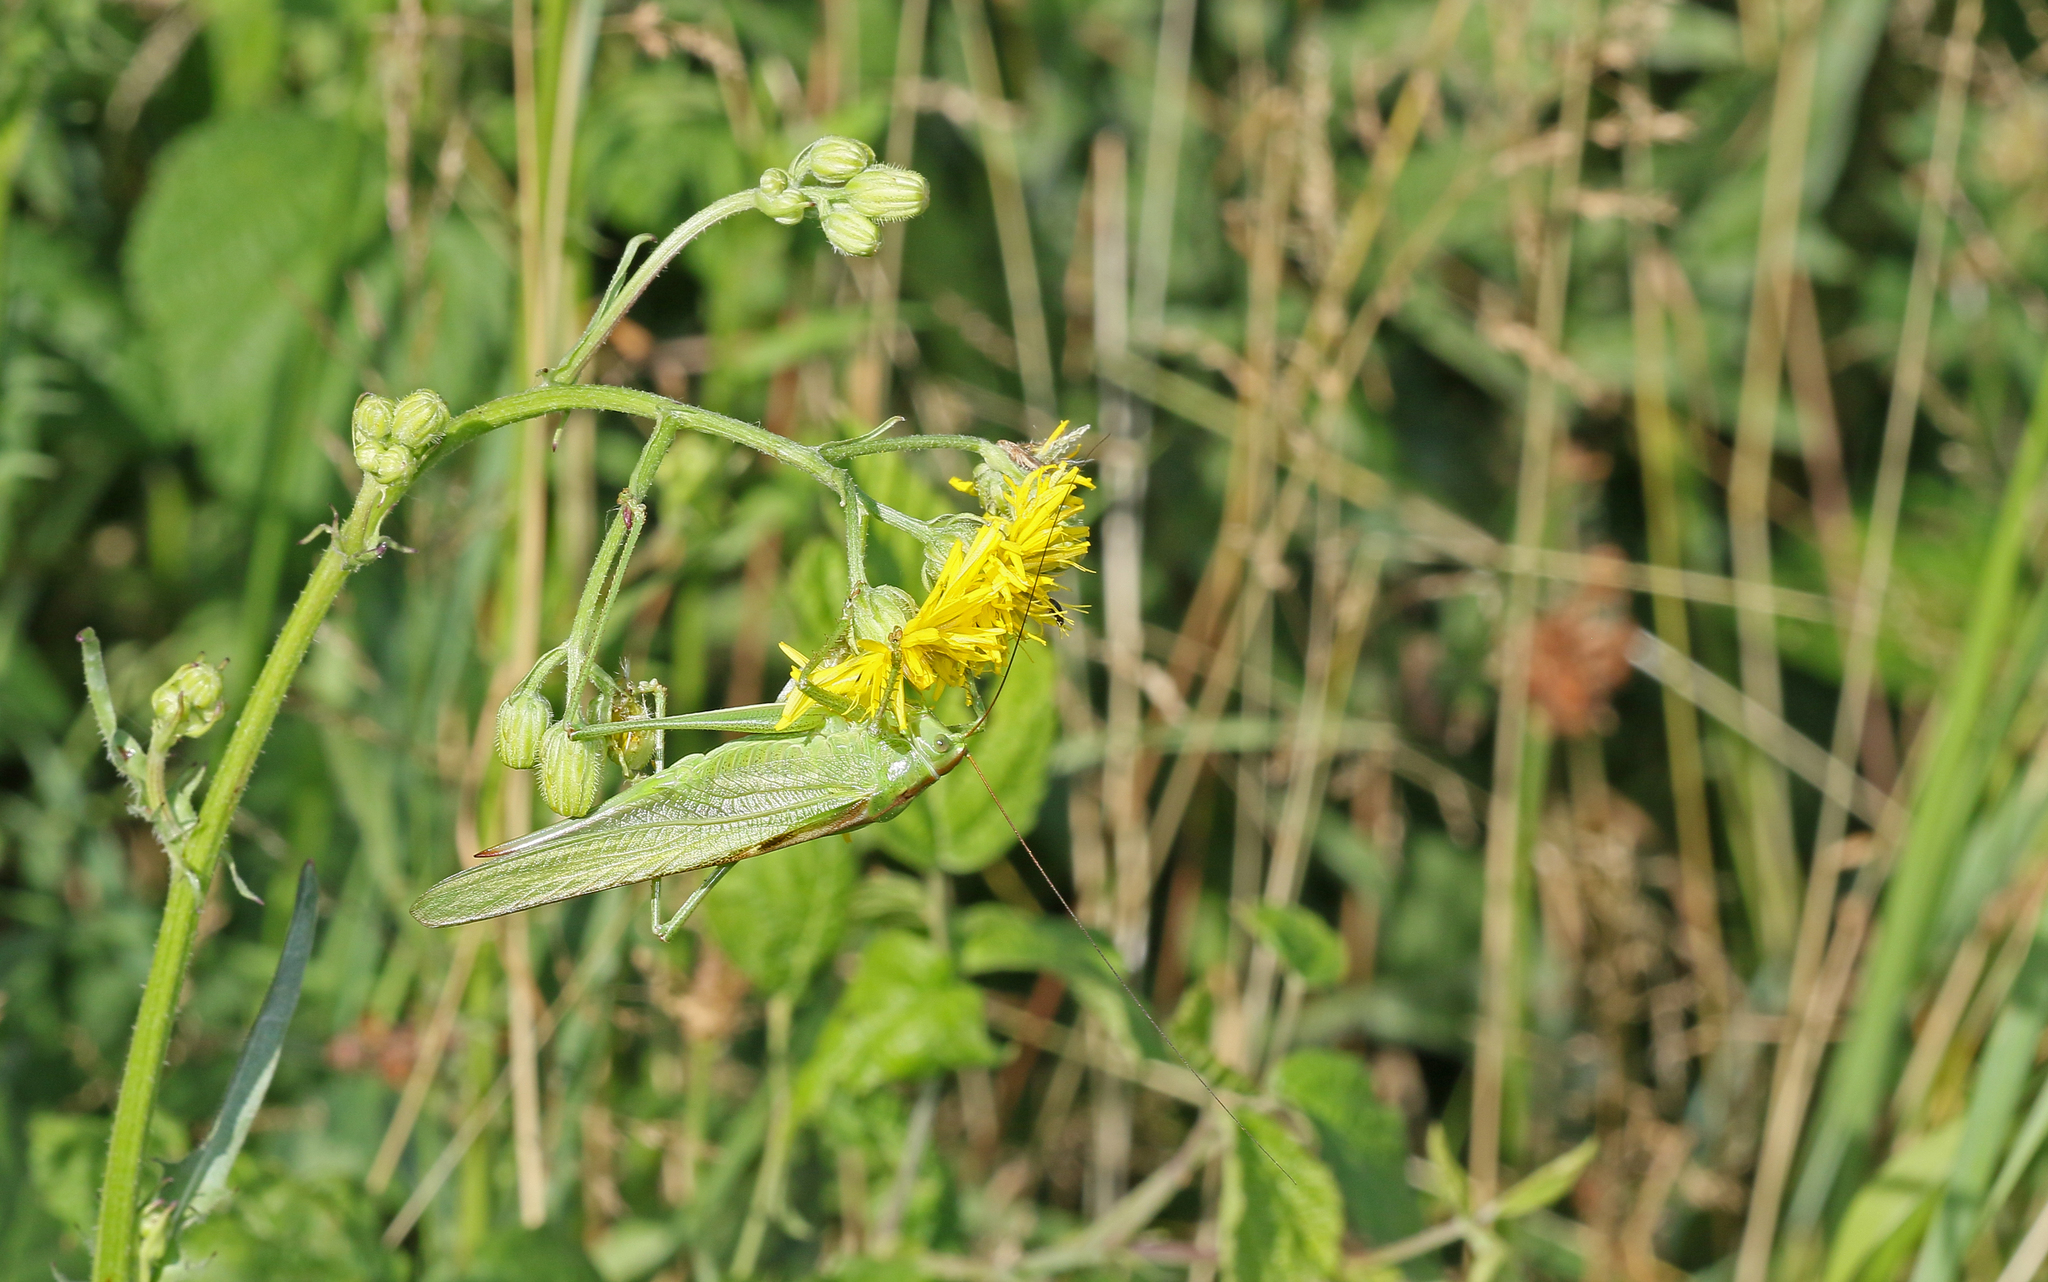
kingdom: Animalia
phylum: Arthropoda
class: Insecta
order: Orthoptera
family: Tettigoniidae
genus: Tettigonia
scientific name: Tettigonia viridissima
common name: Great green bush-cricket
